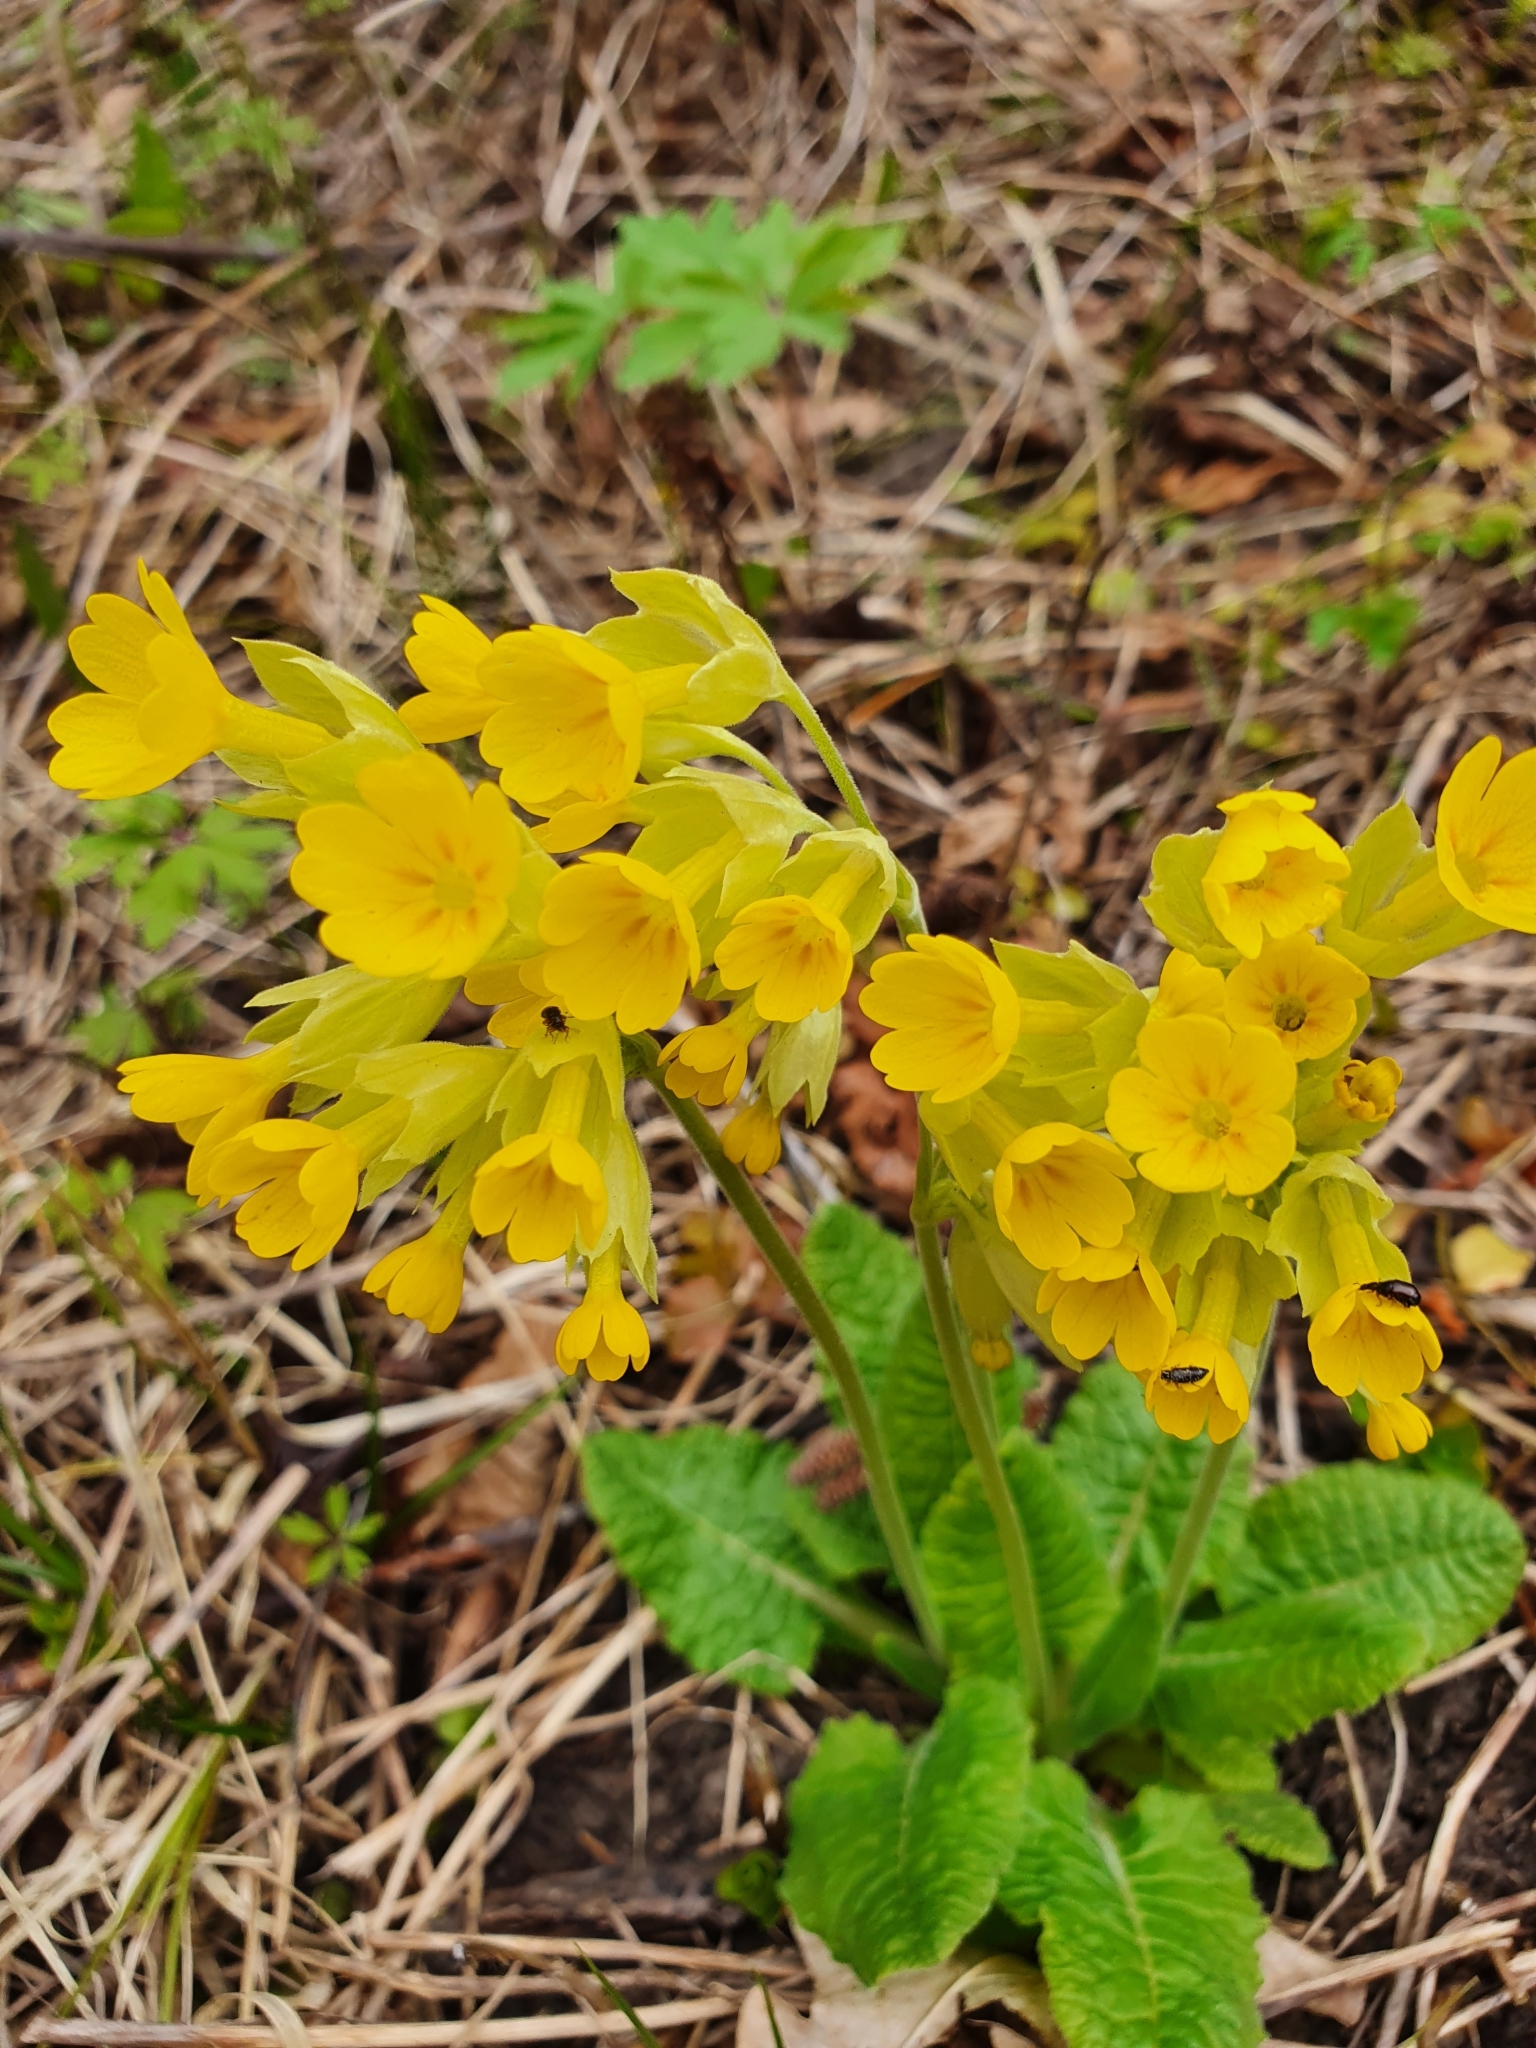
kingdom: Plantae
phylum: Tracheophyta
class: Magnoliopsida
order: Ericales
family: Primulaceae
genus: Primula
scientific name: Primula veris
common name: Cowslip
